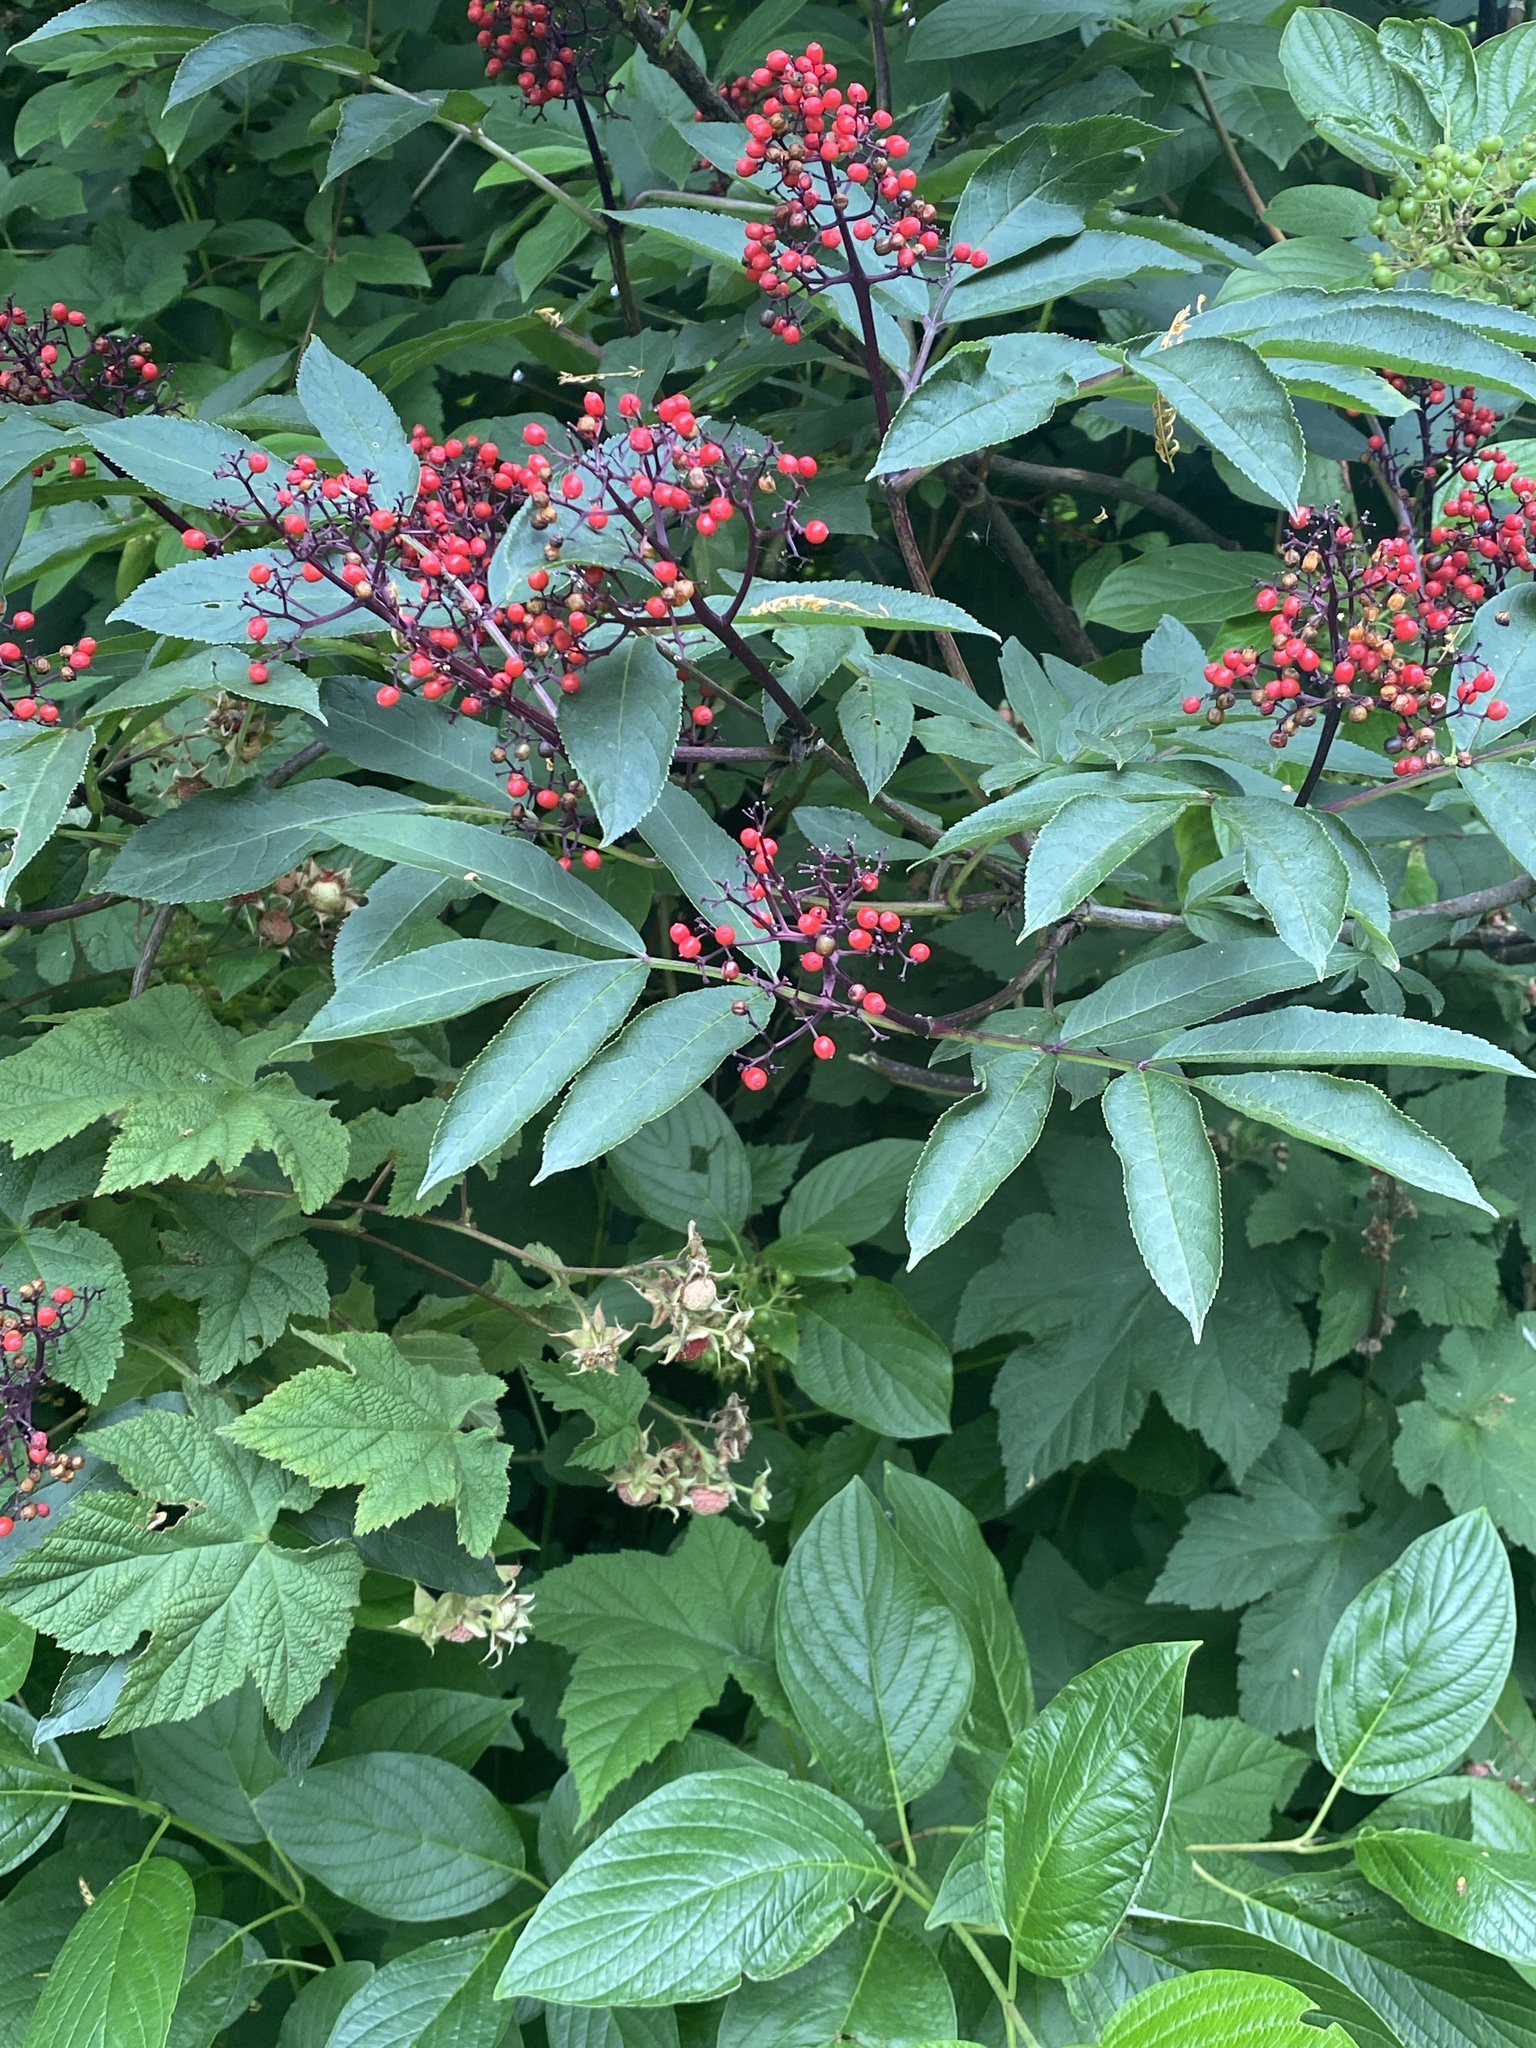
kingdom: Plantae
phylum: Tracheophyta
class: Magnoliopsida
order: Dipsacales
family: Viburnaceae
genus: Sambucus
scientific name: Sambucus racemosa
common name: Red-berried elder
